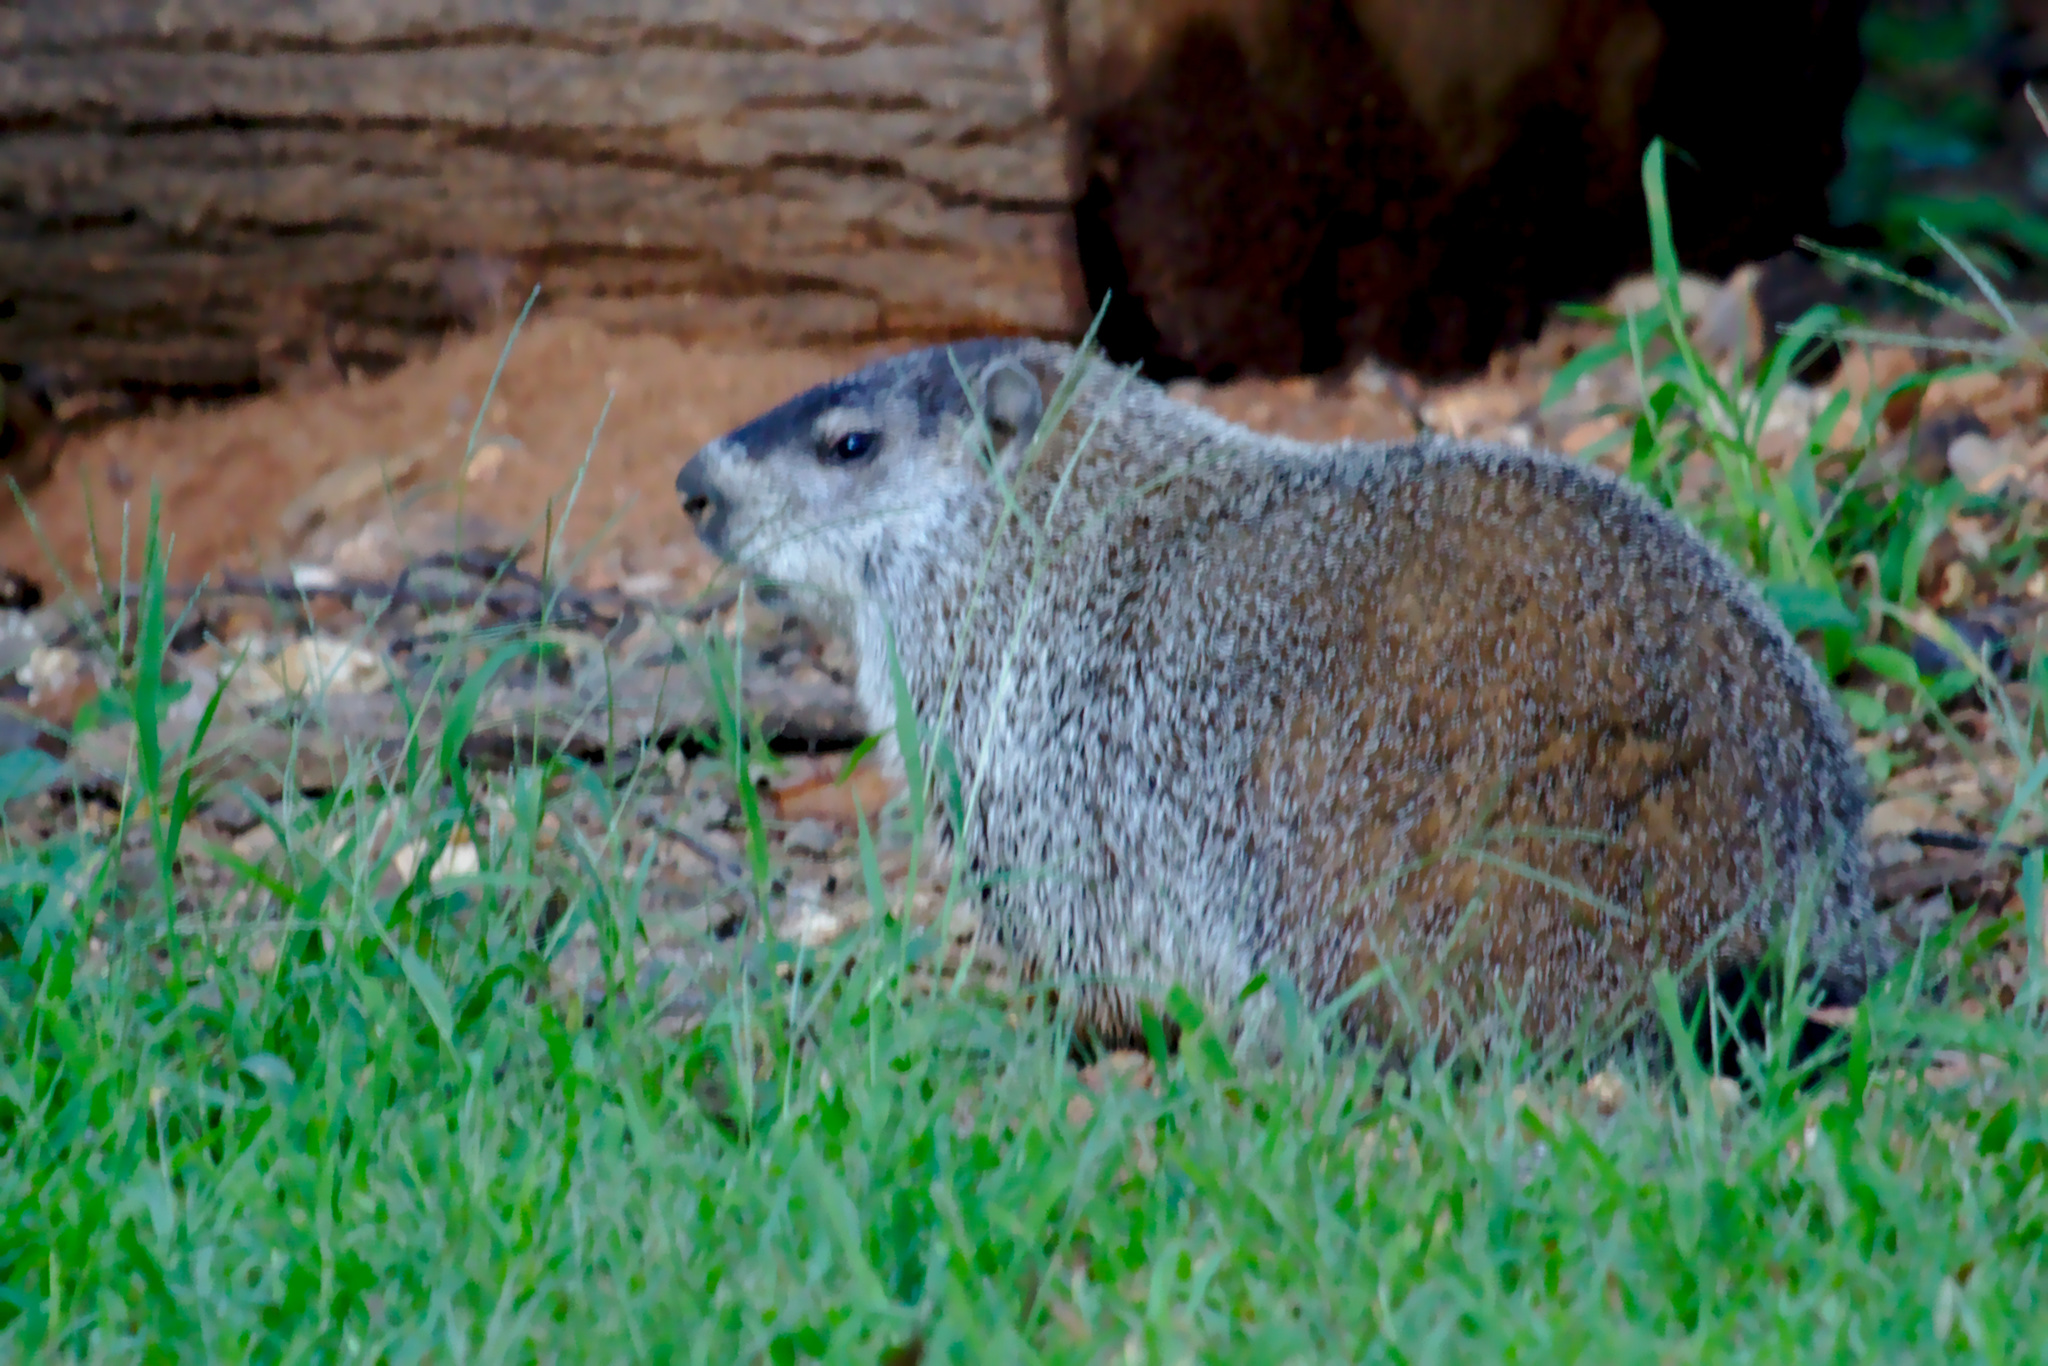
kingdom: Animalia
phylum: Chordata
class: Mammalia
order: Rodentia
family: Sciuridae
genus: Marmota
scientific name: Marmota monax
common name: Groundhog
